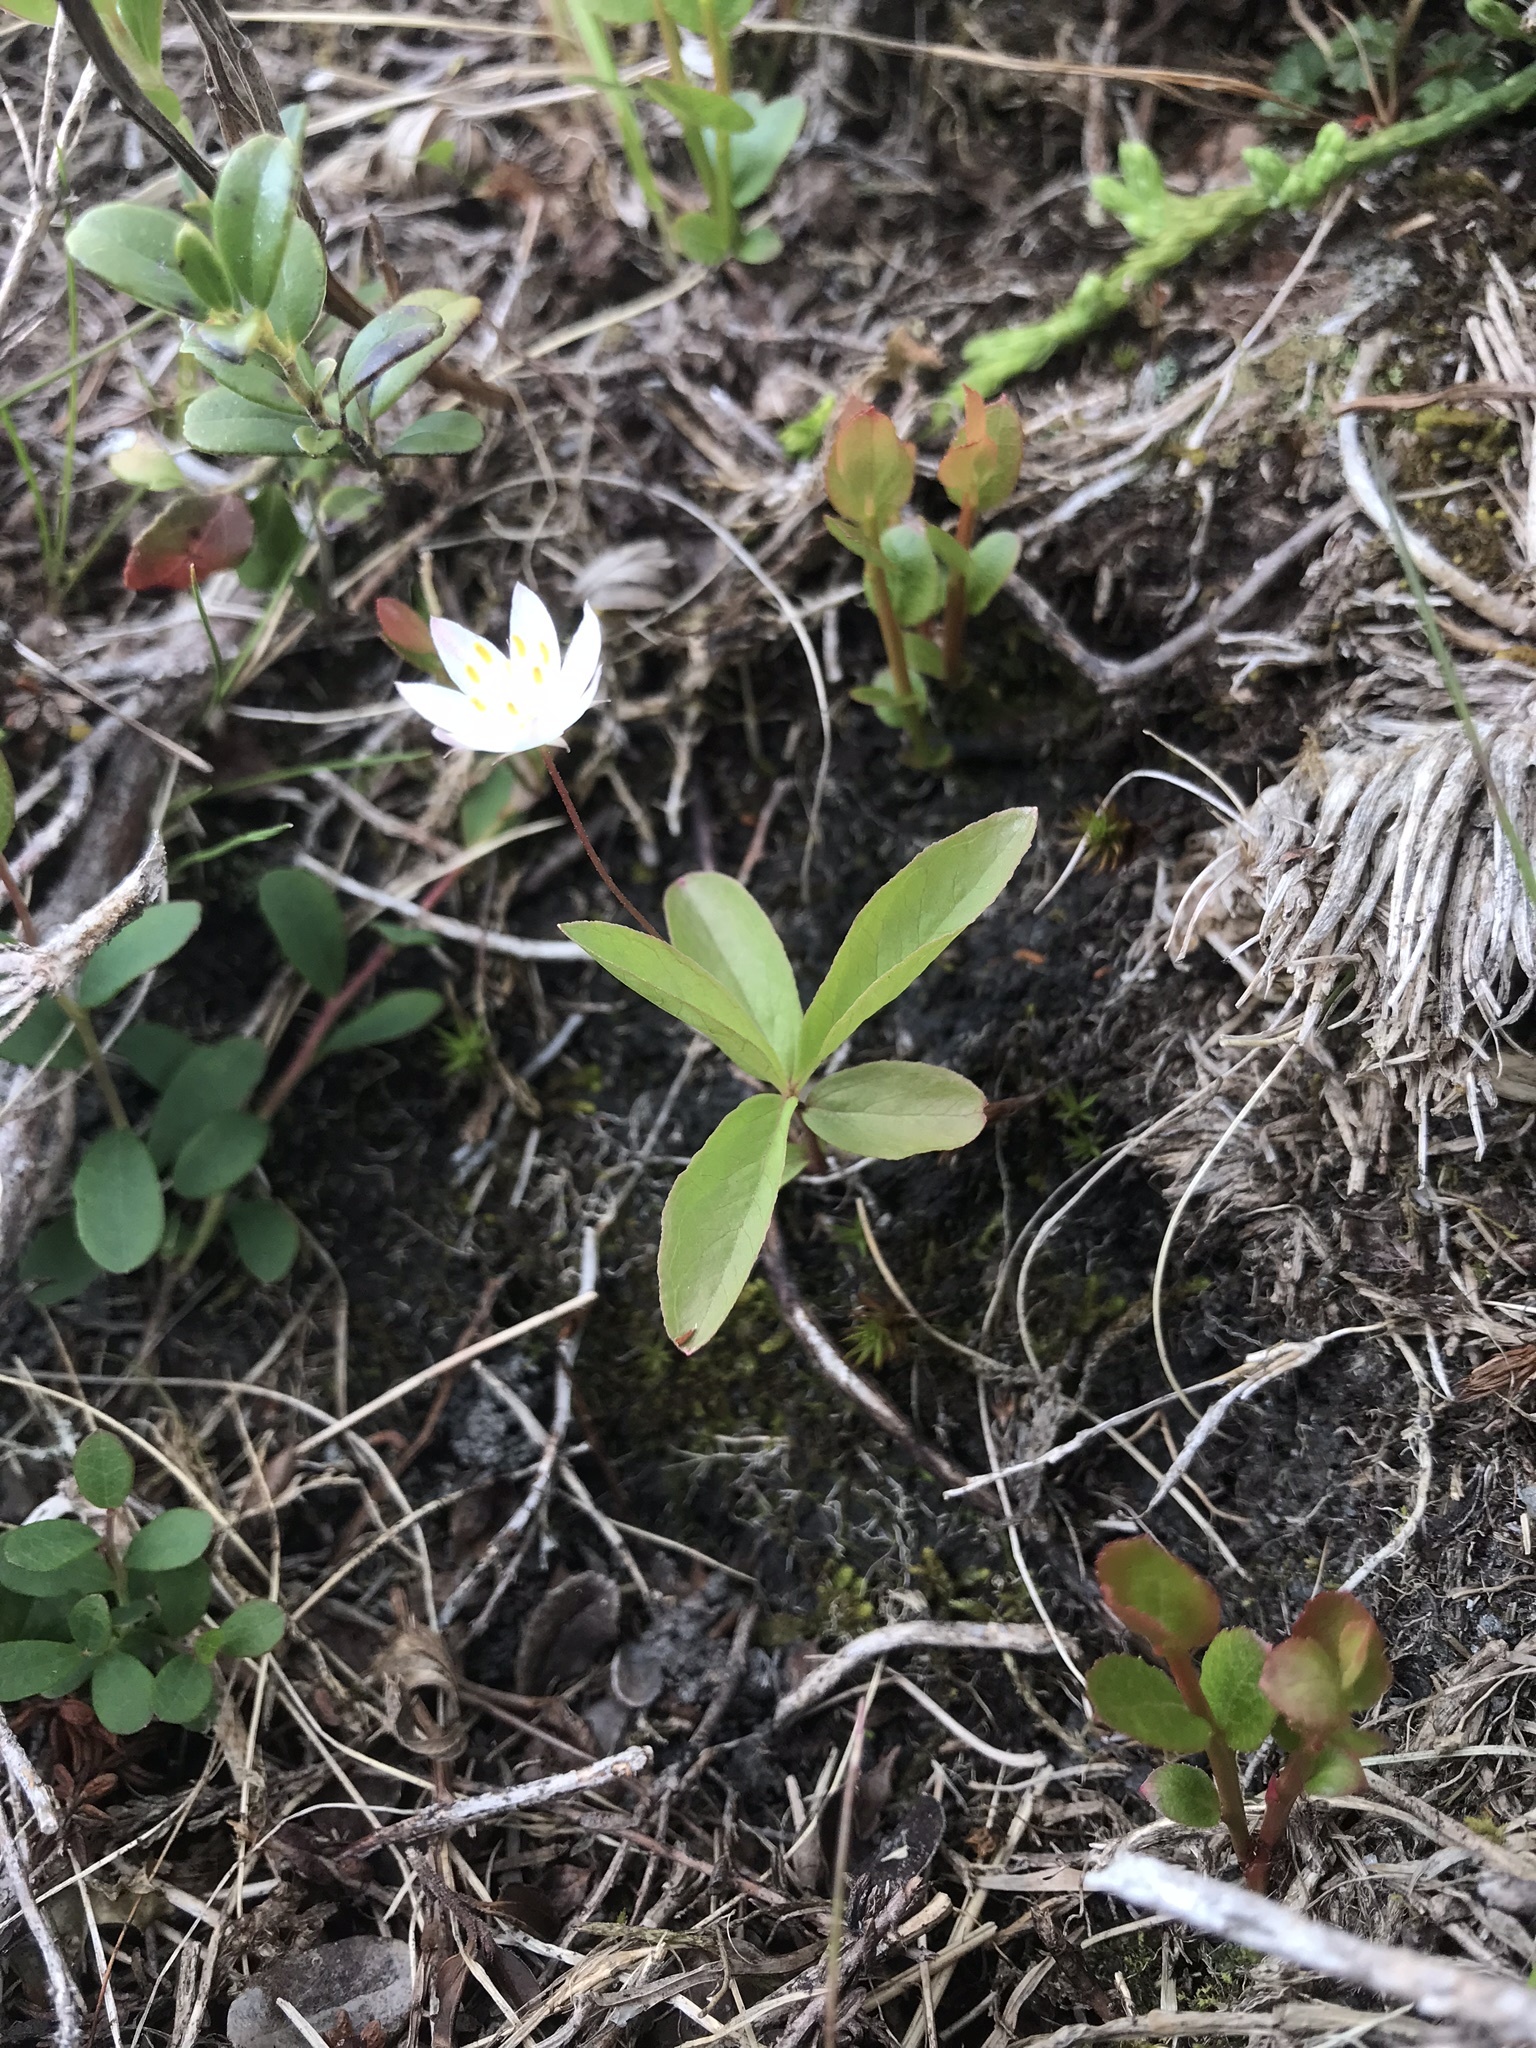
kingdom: Plantae
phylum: Tracheophyta
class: Magnoliopsida
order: Ericales
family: Primulaceae
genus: Lysimachia
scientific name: Lysimachia europaea
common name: Arctic starflower
